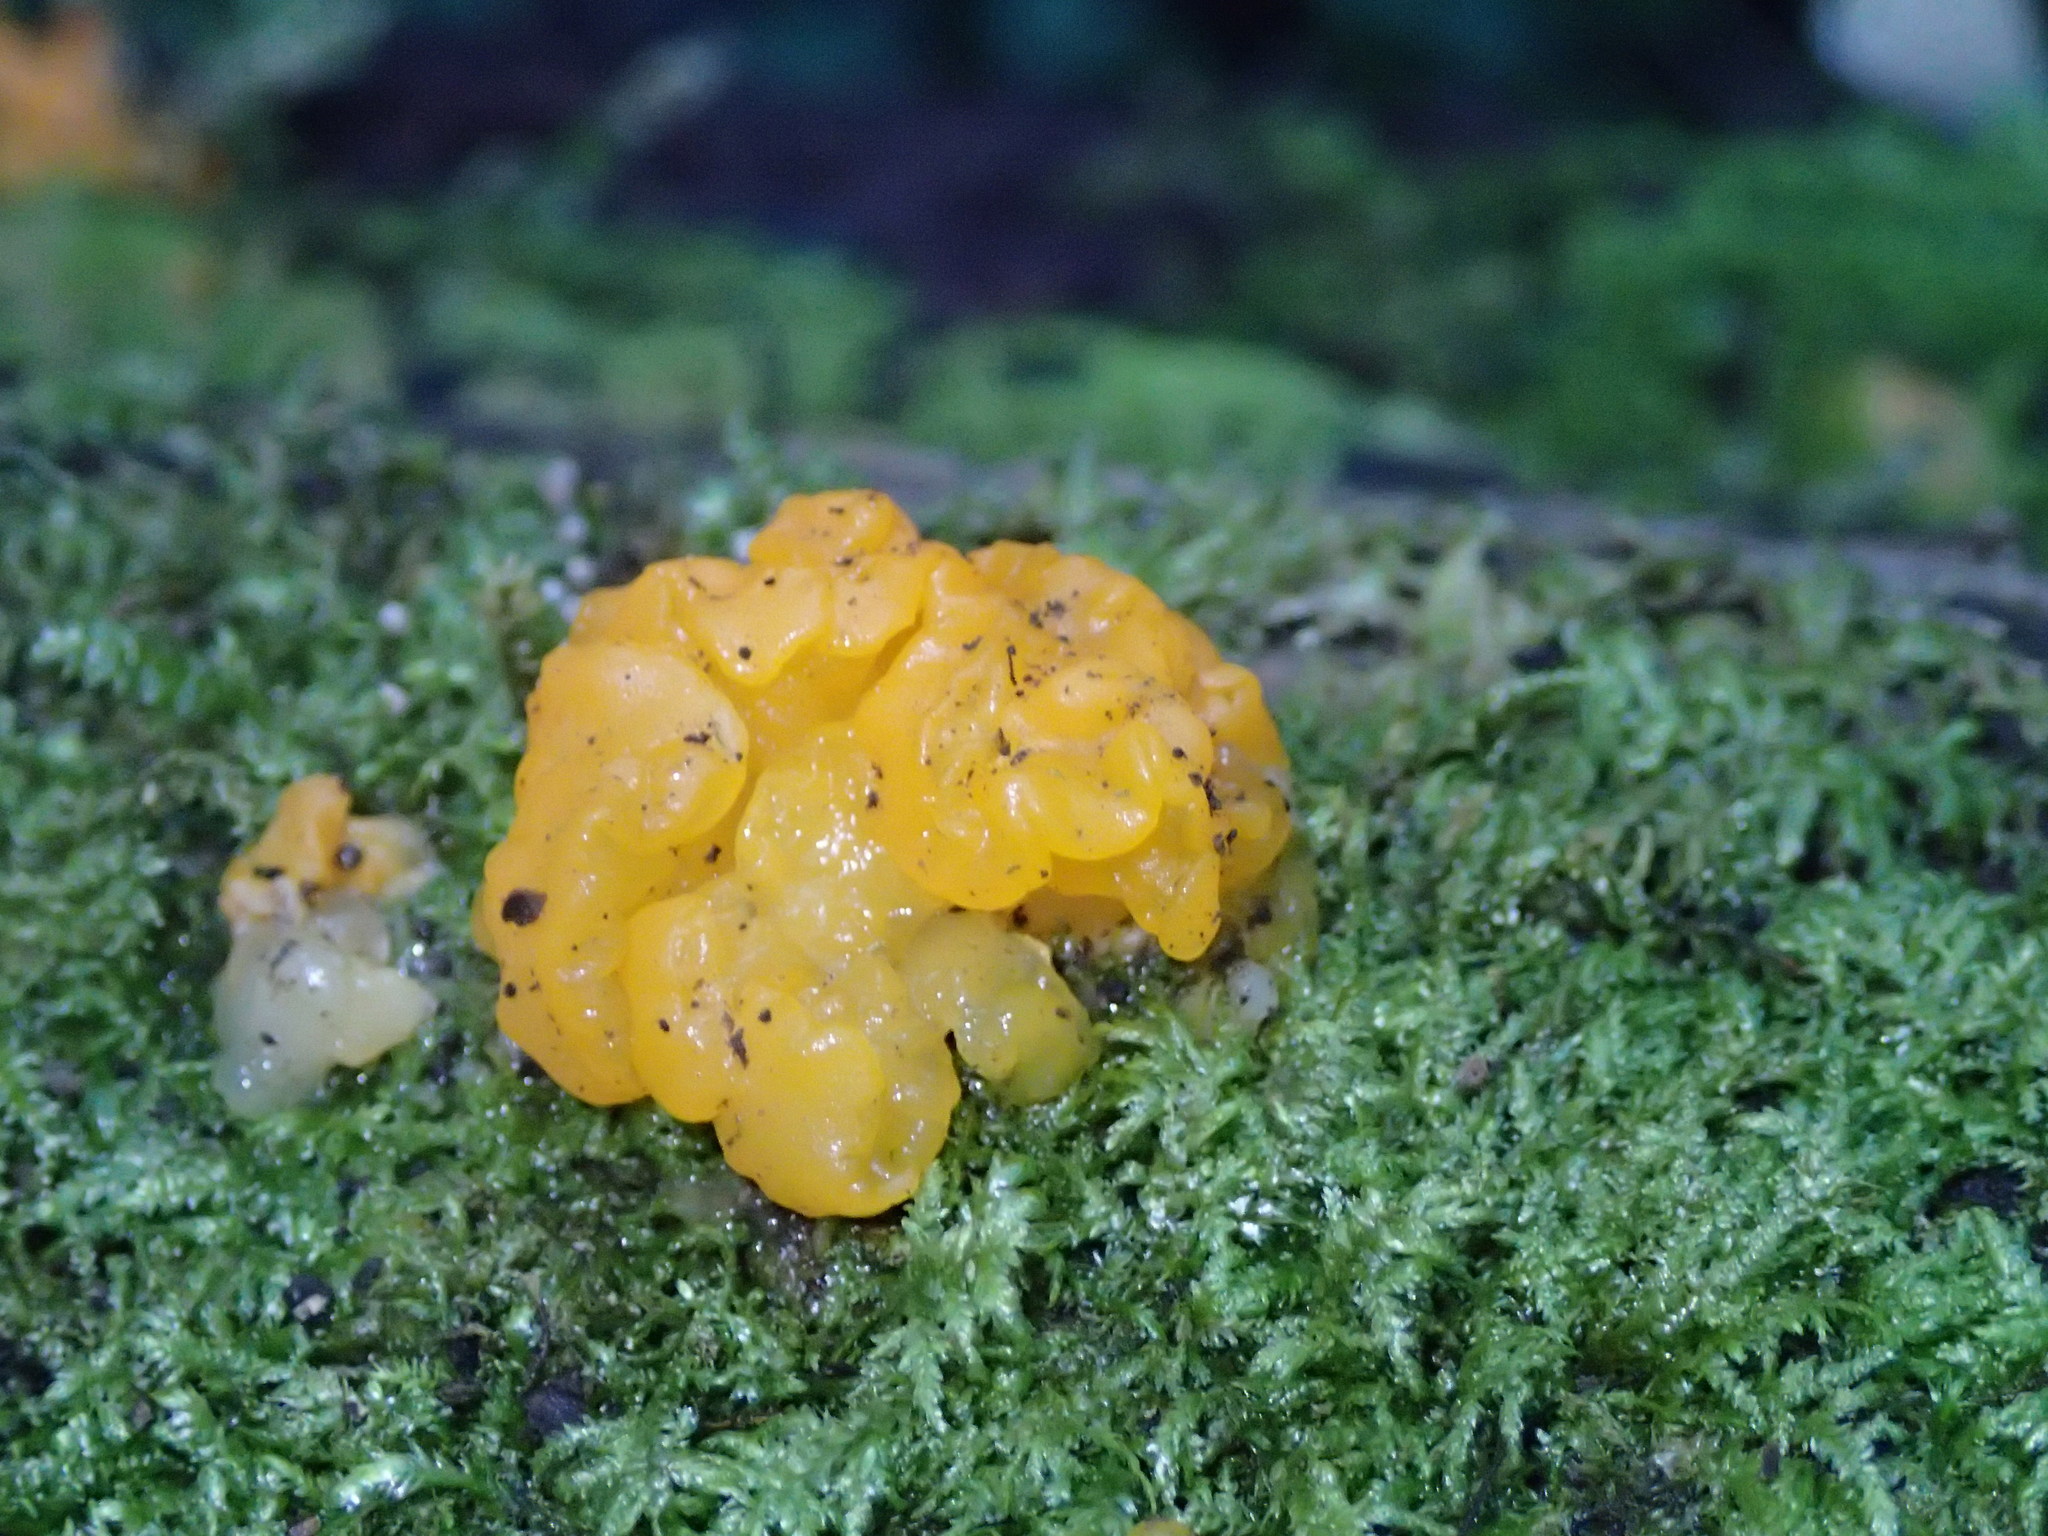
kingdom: Fungi
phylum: Basidiomycota
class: Tremellomycetes
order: Tremellales
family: Tremellaceae
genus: Tremella
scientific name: Tremella mesenterica
